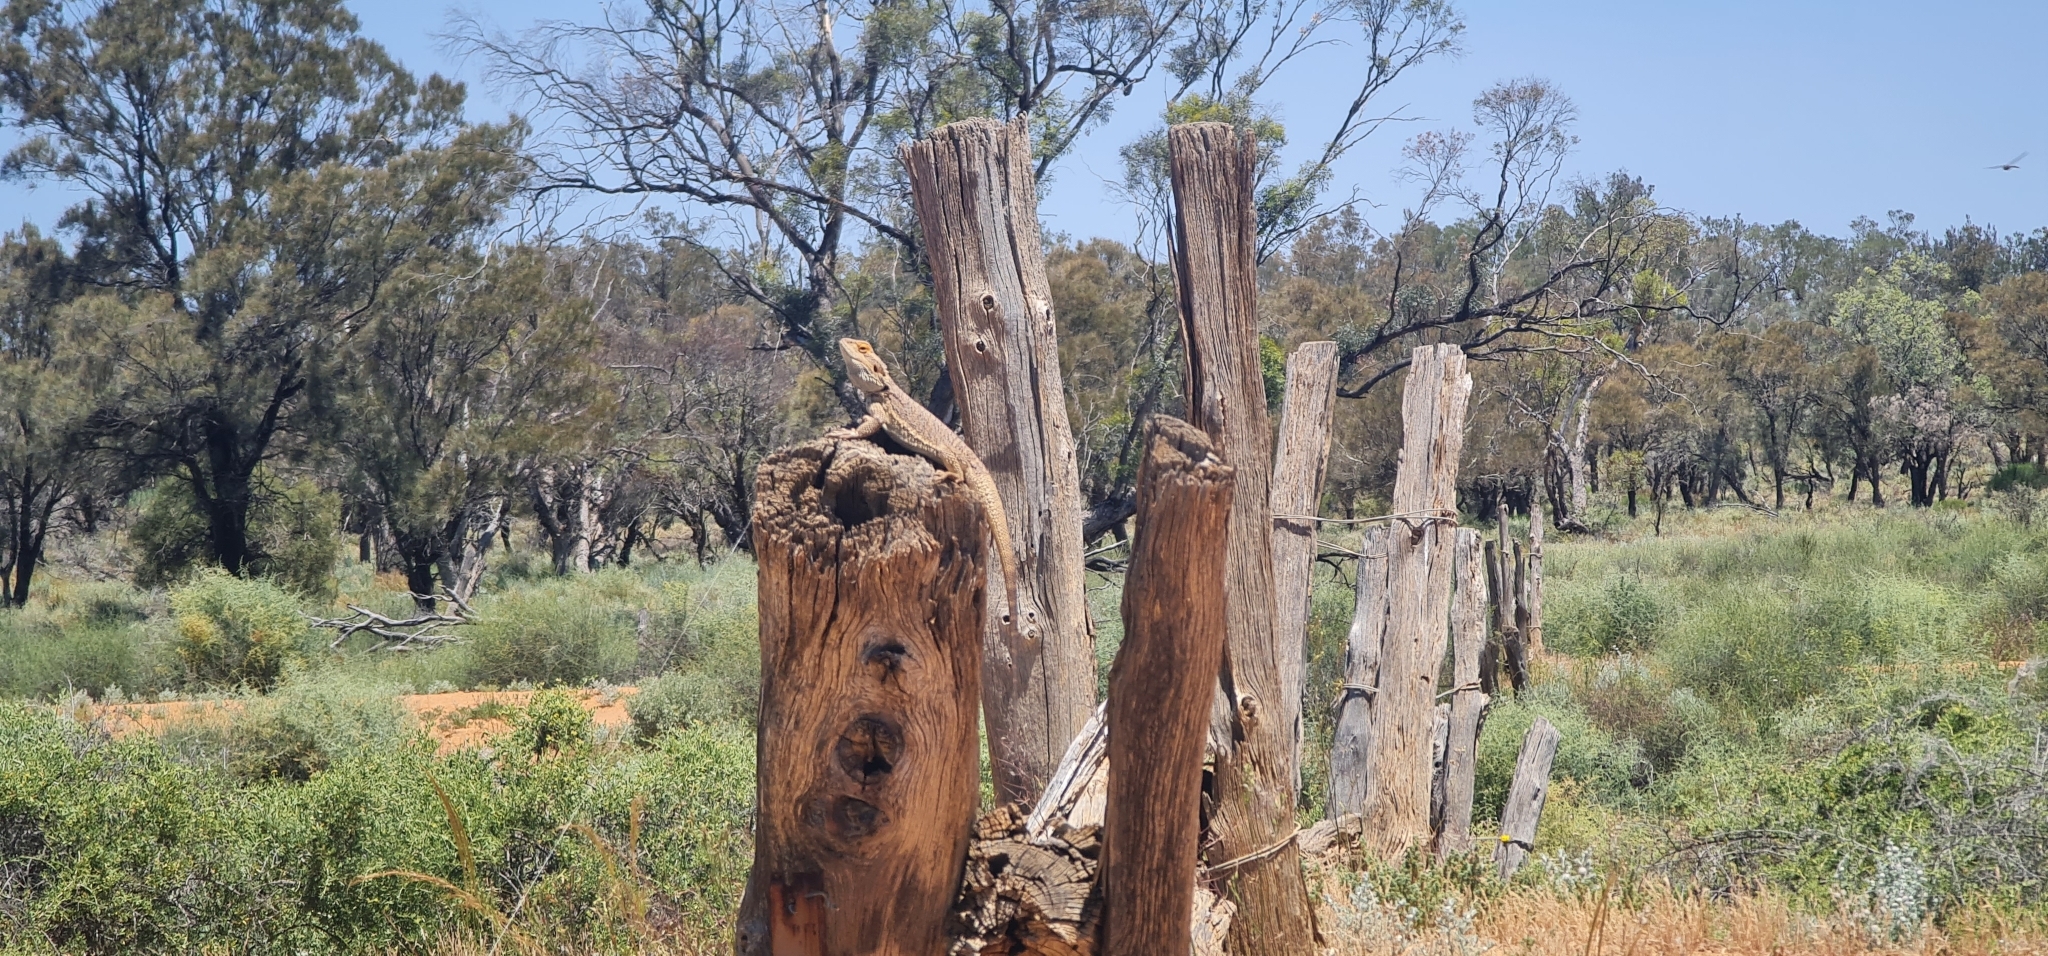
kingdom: Animalia
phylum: Chordata
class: Squamata
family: Agamidae
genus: Pogona
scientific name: Pogona vitticeps
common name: Central bearded dragon
